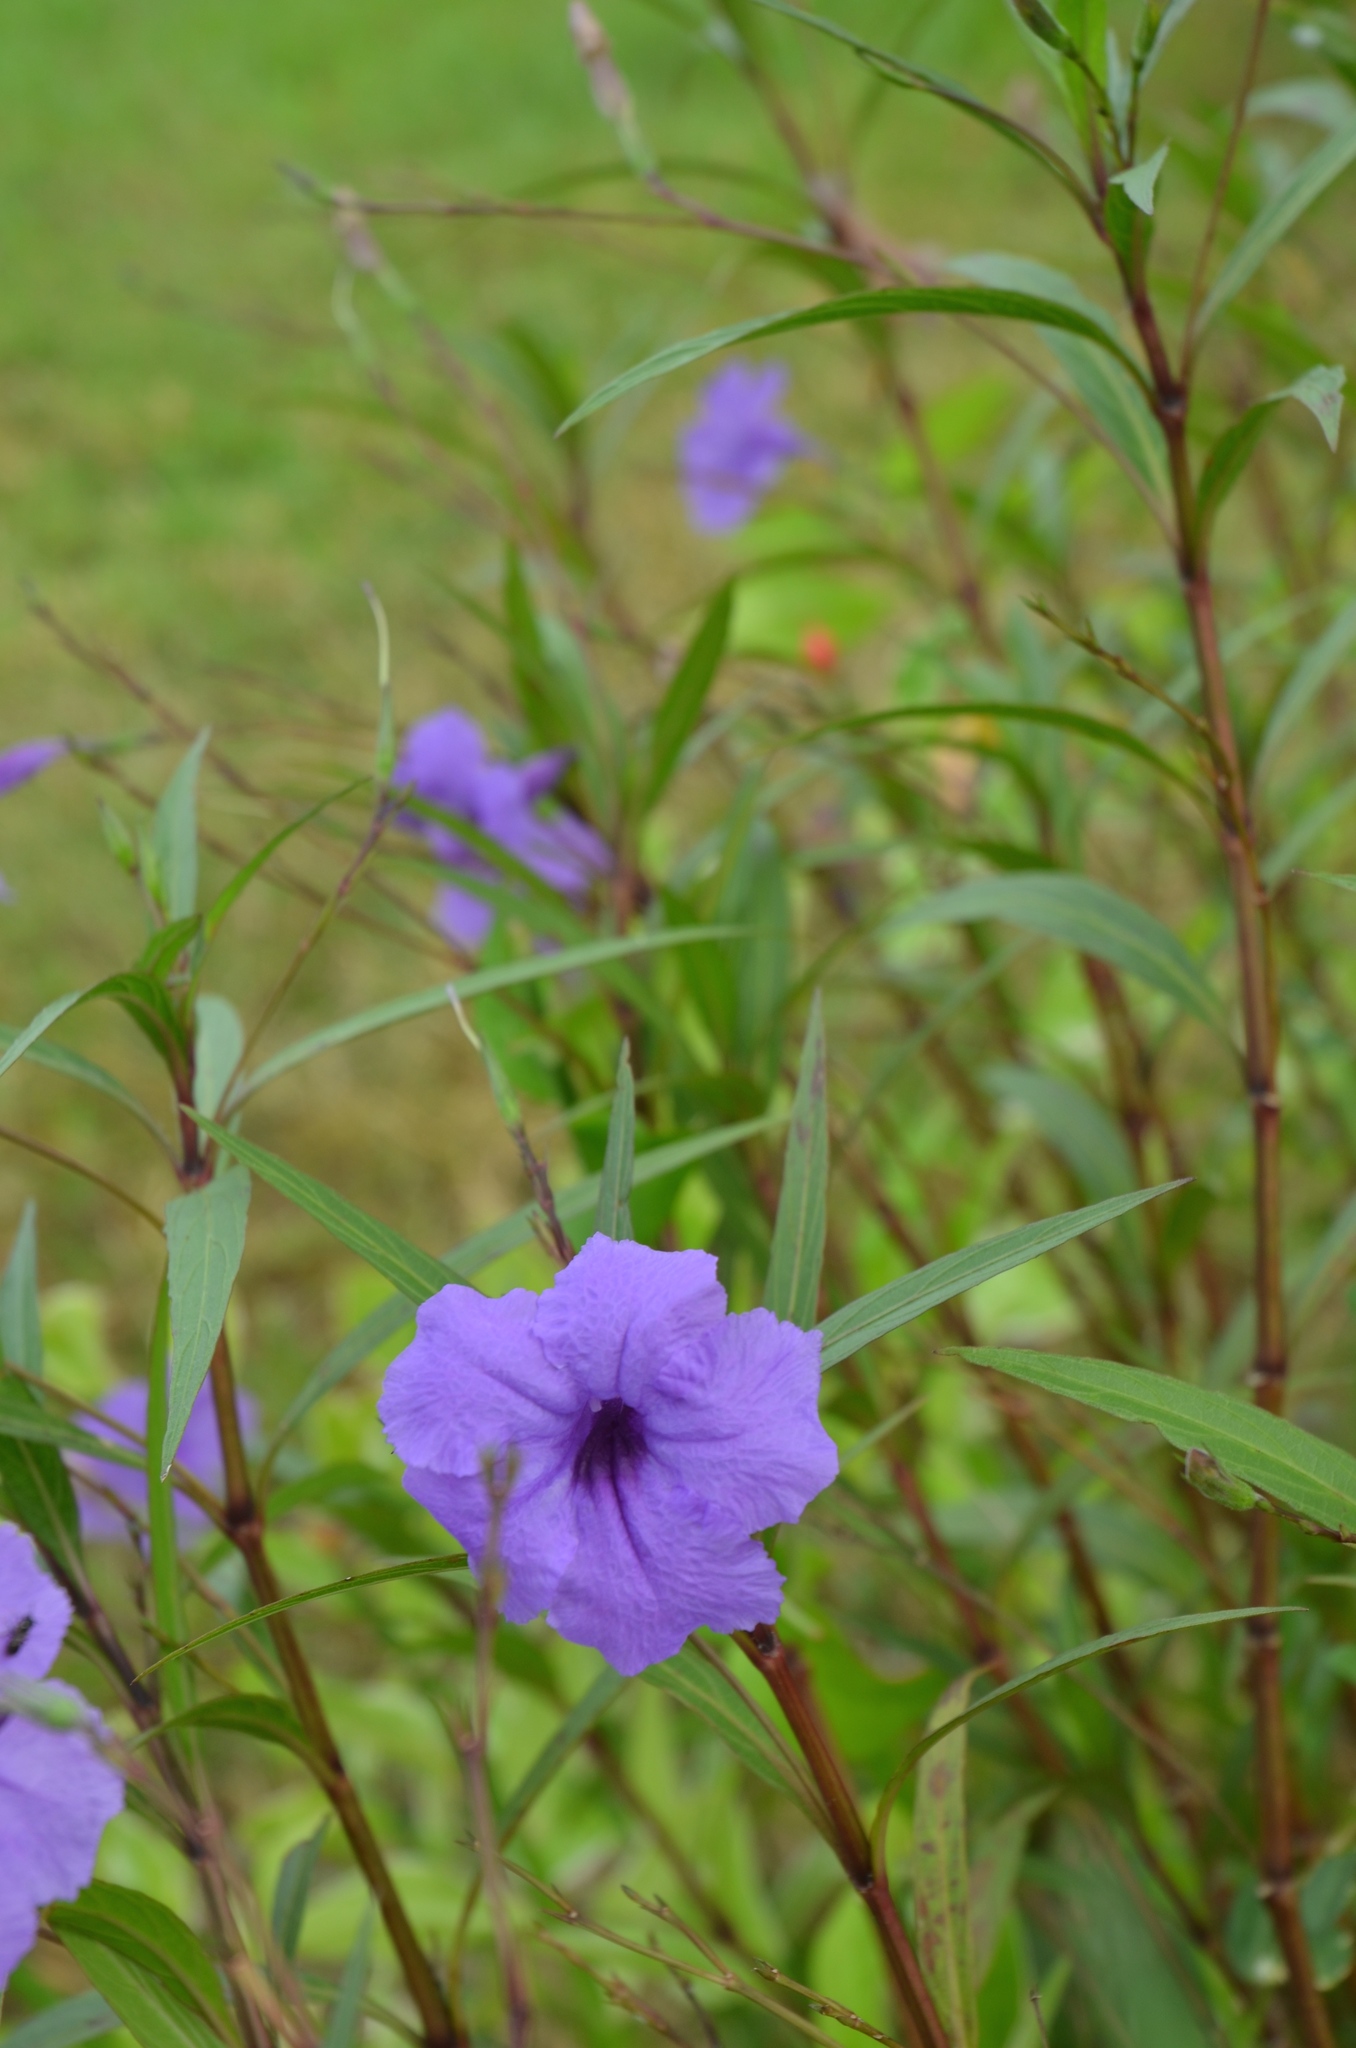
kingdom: Plantae
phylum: Tracheophyta
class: Magnoliopsida
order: Lamiales
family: Acanthaceae
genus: Ruellia
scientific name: Ruellia simplex
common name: Softseed wild petunia
